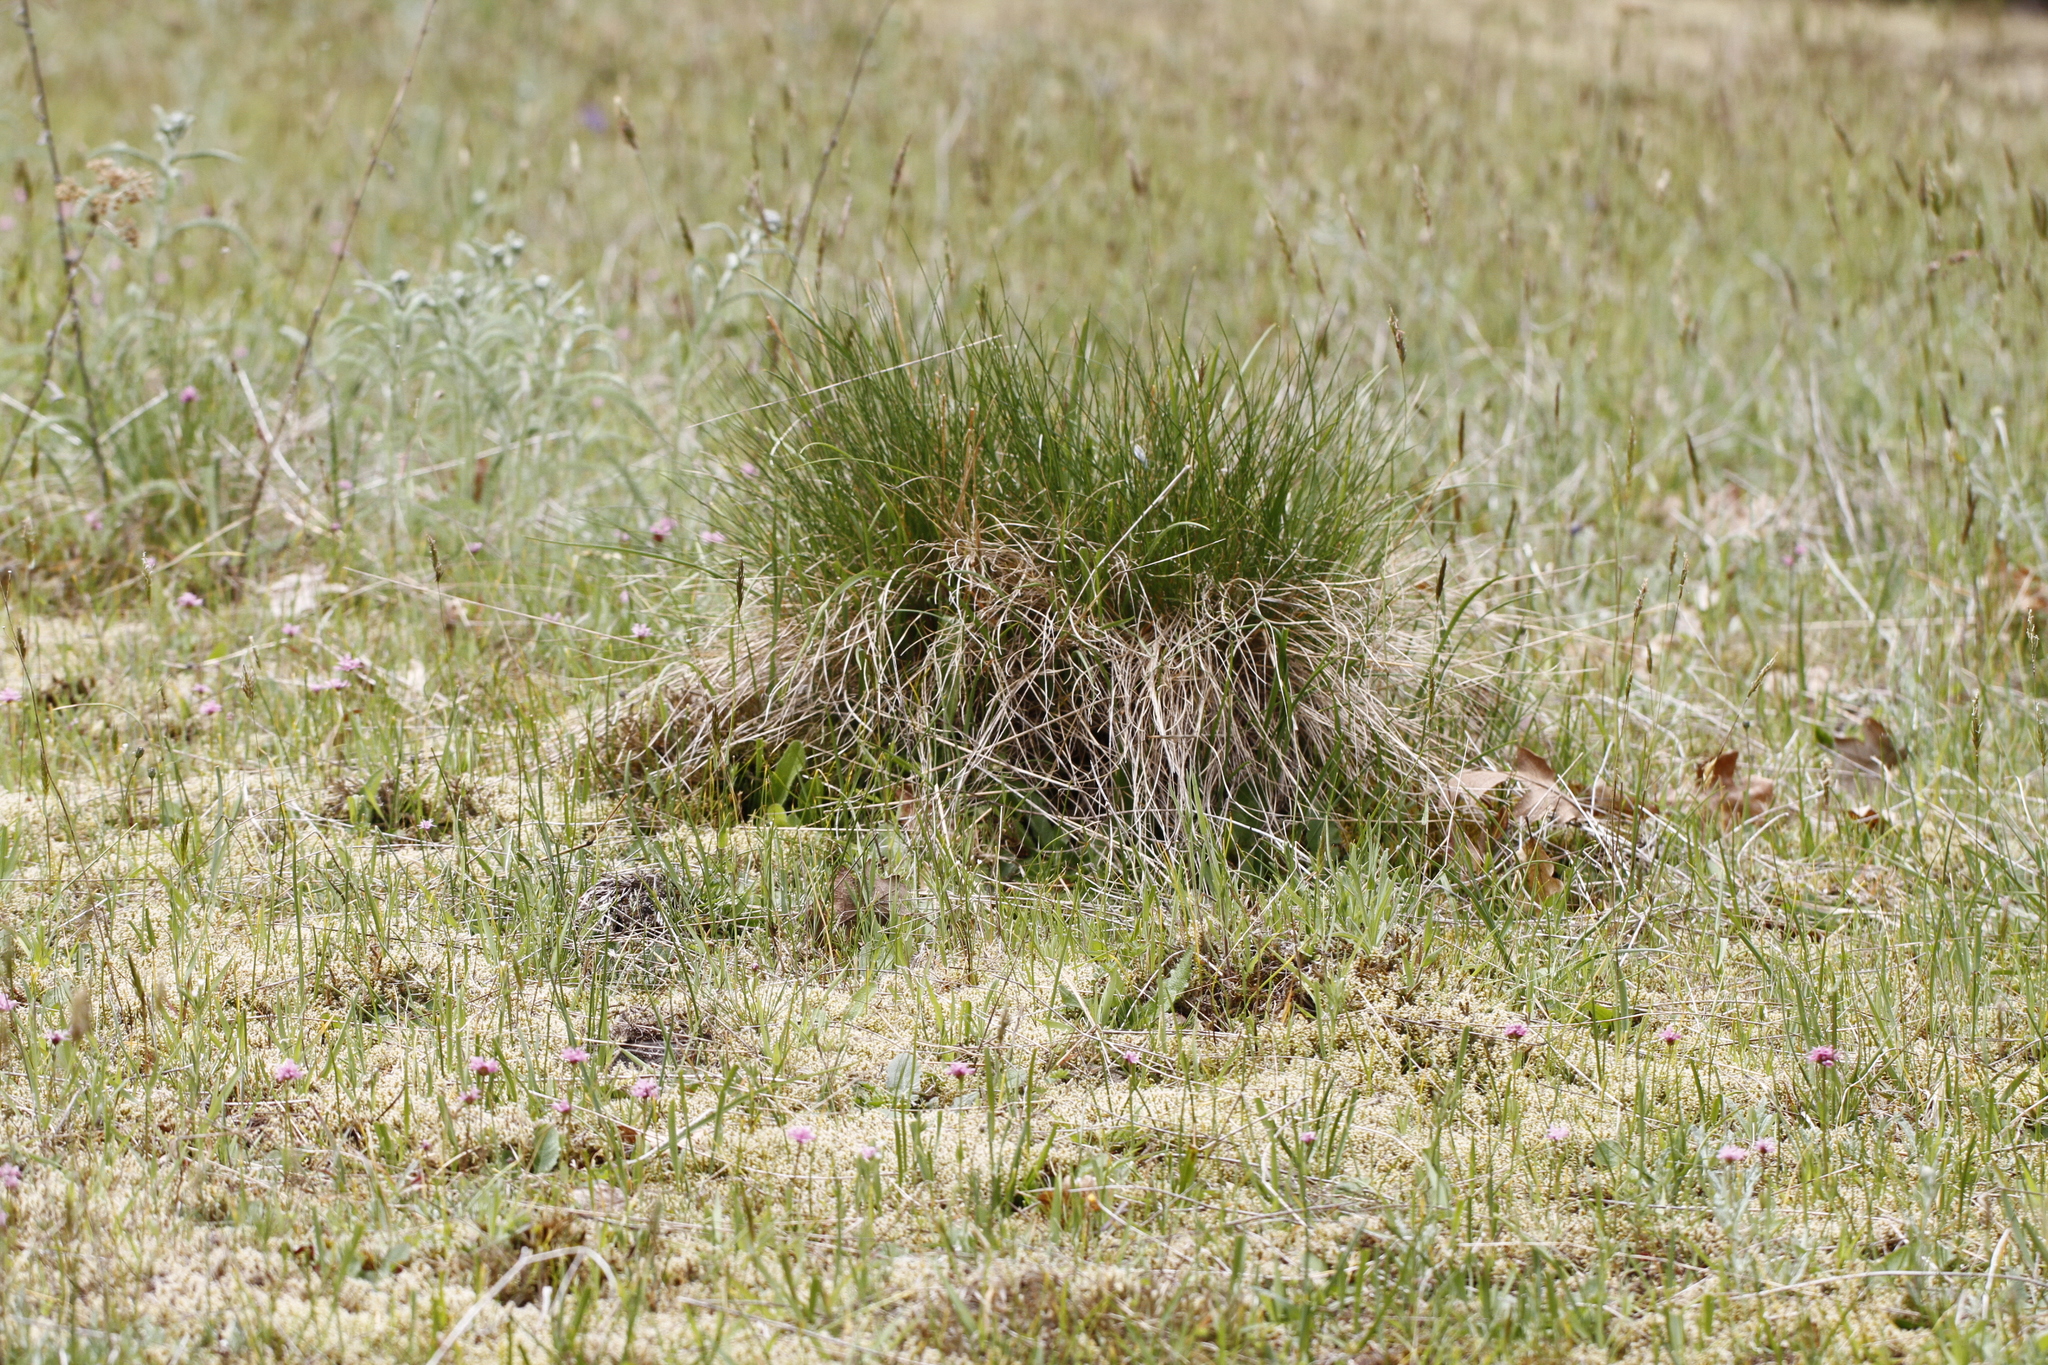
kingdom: Plantae
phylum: Tracheophyta
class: Liliopsida
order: Poales
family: Poaceae
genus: Festuca
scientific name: Festuca idahoensis
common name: Idaho fescue
